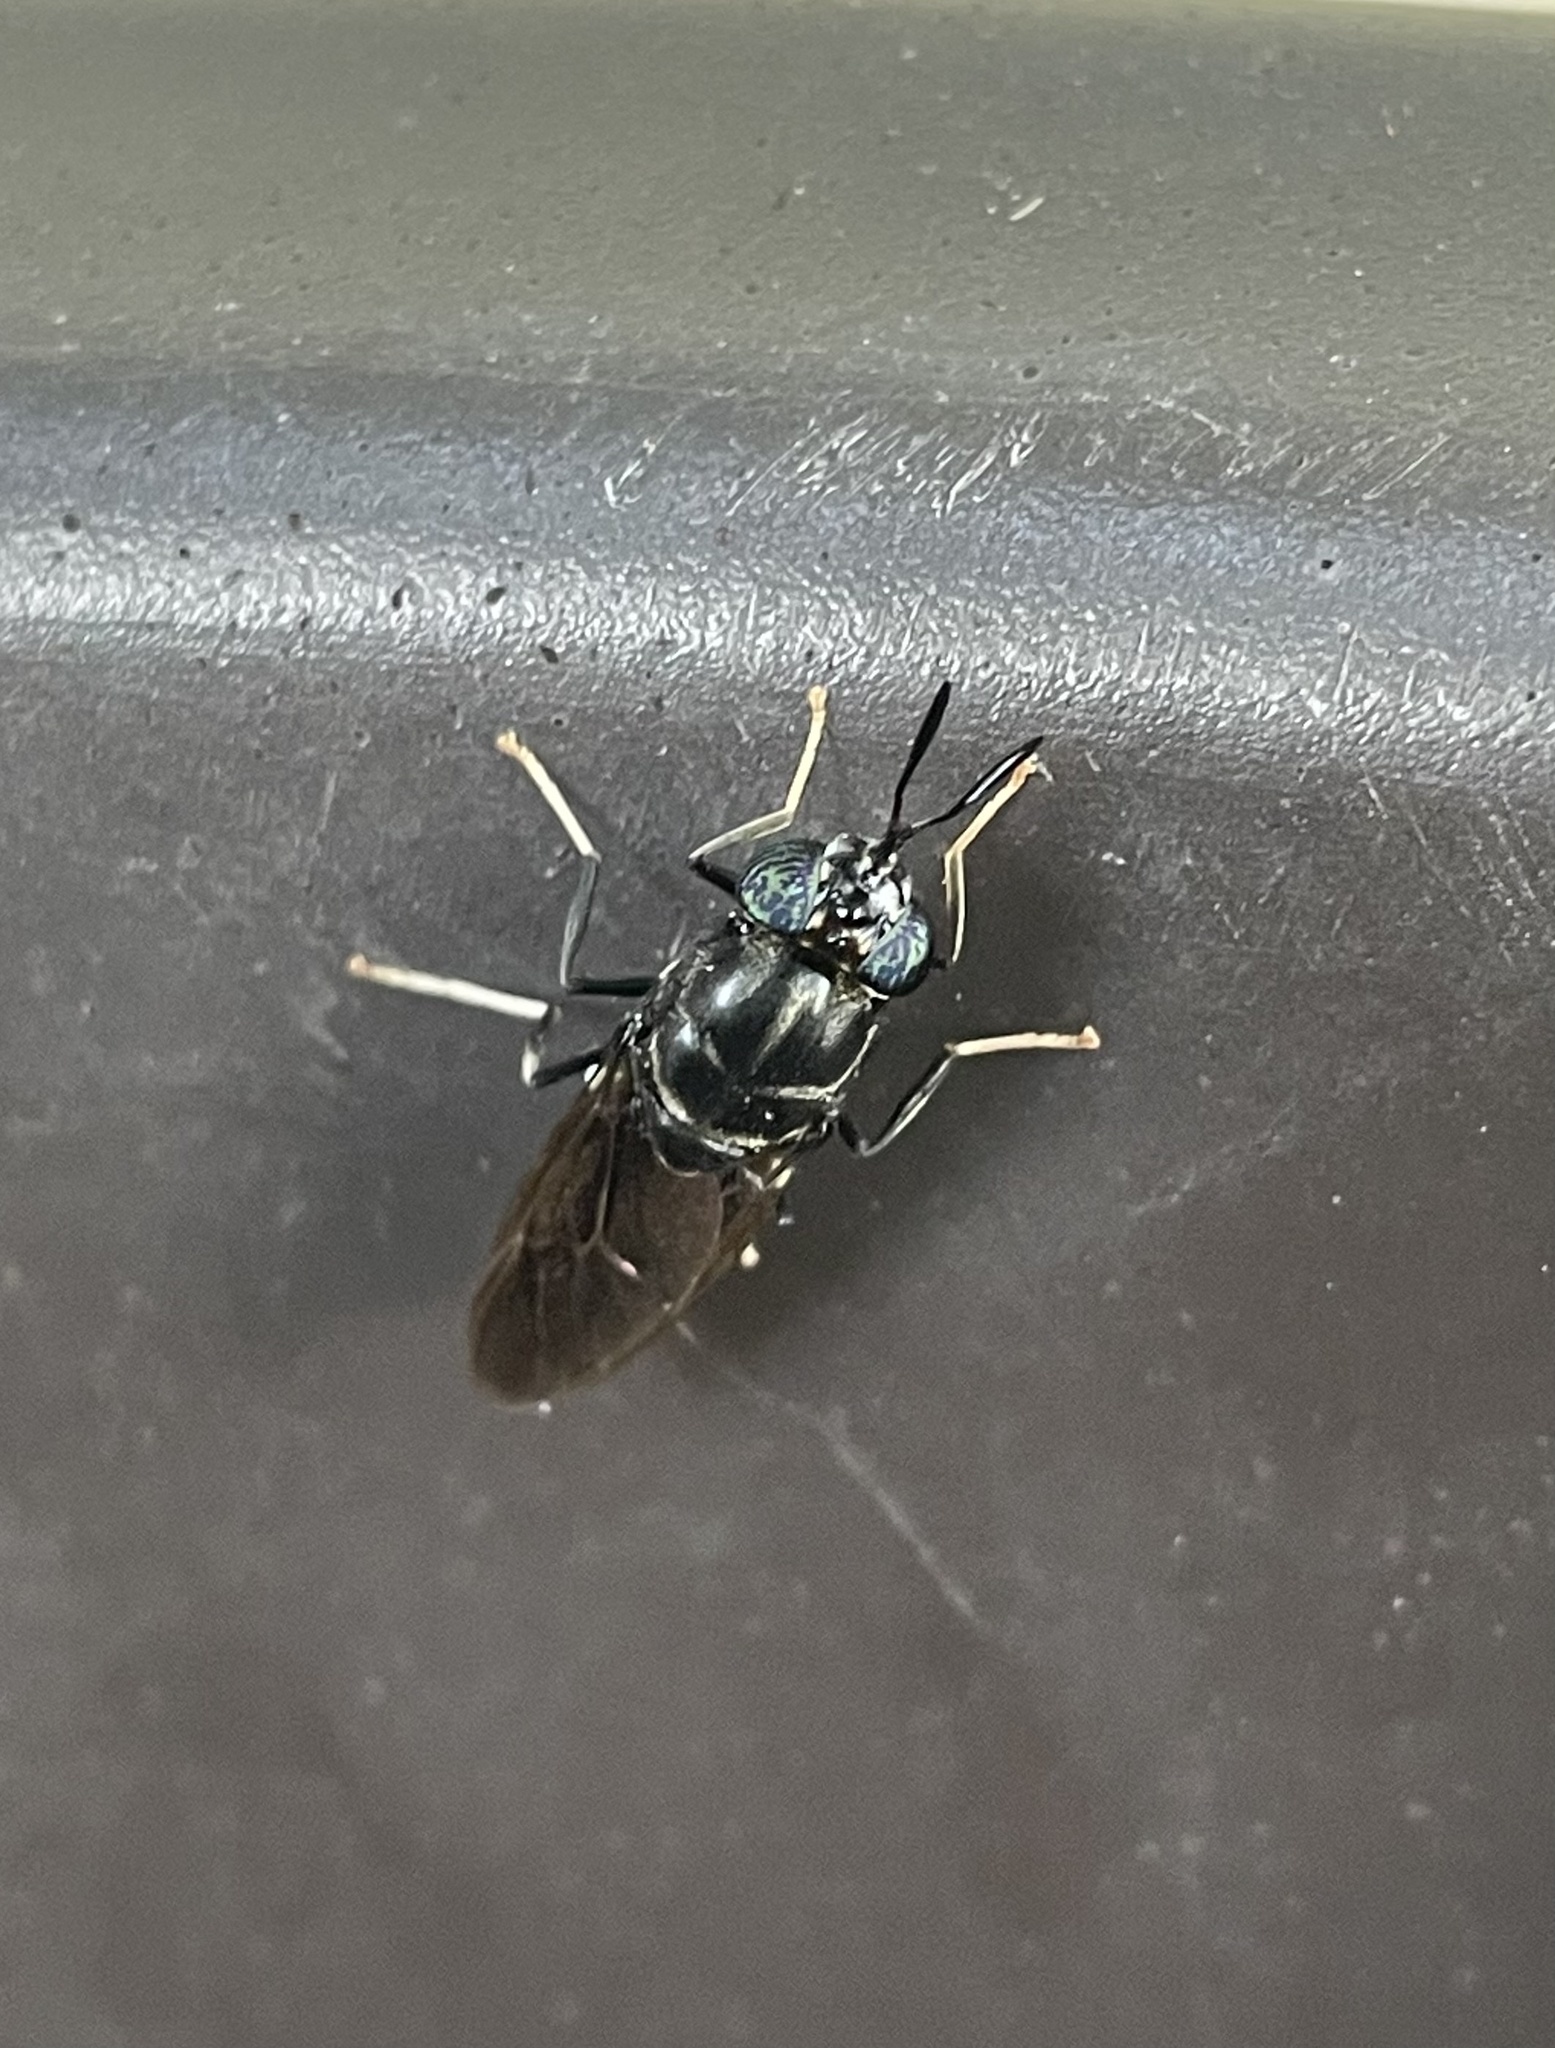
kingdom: Animalia
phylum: Arthropoda
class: Insecta
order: Diptera
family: Stratiomyidae
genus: Hermetia
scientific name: Hermetia illucens
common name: Black soldier fly
